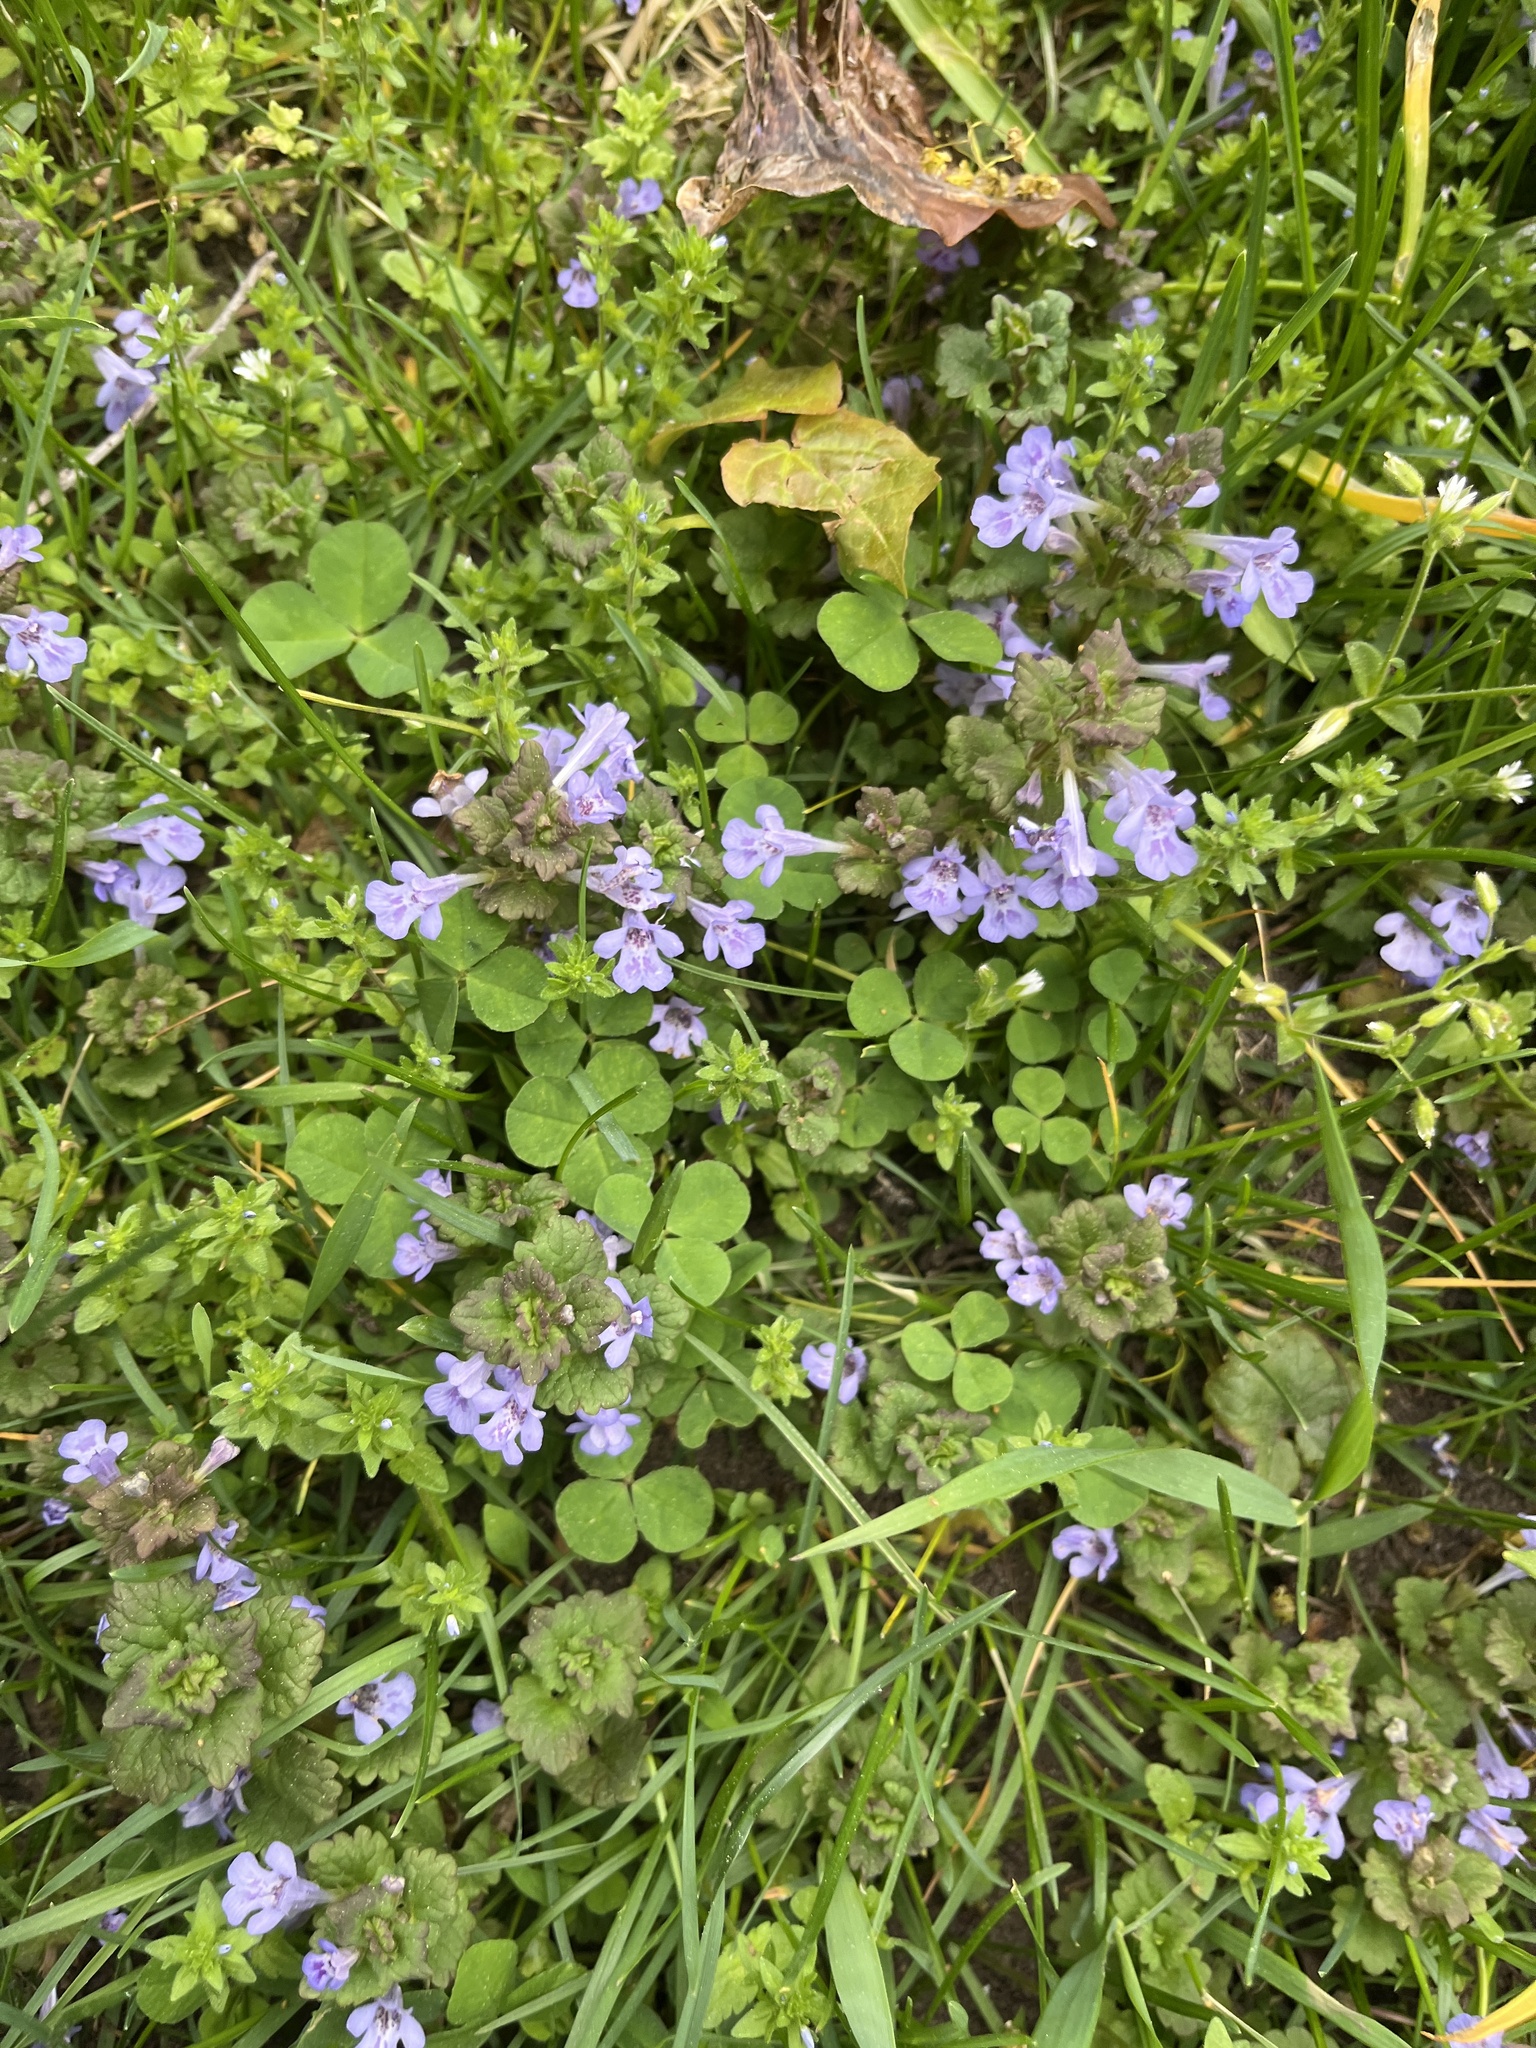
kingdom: Plantae
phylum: Tracheophyta
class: Magnoliopsida
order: Lamiales
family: Lamiaceae
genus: Glechoma
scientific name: Glechoma hederacea
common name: Ground ivy
